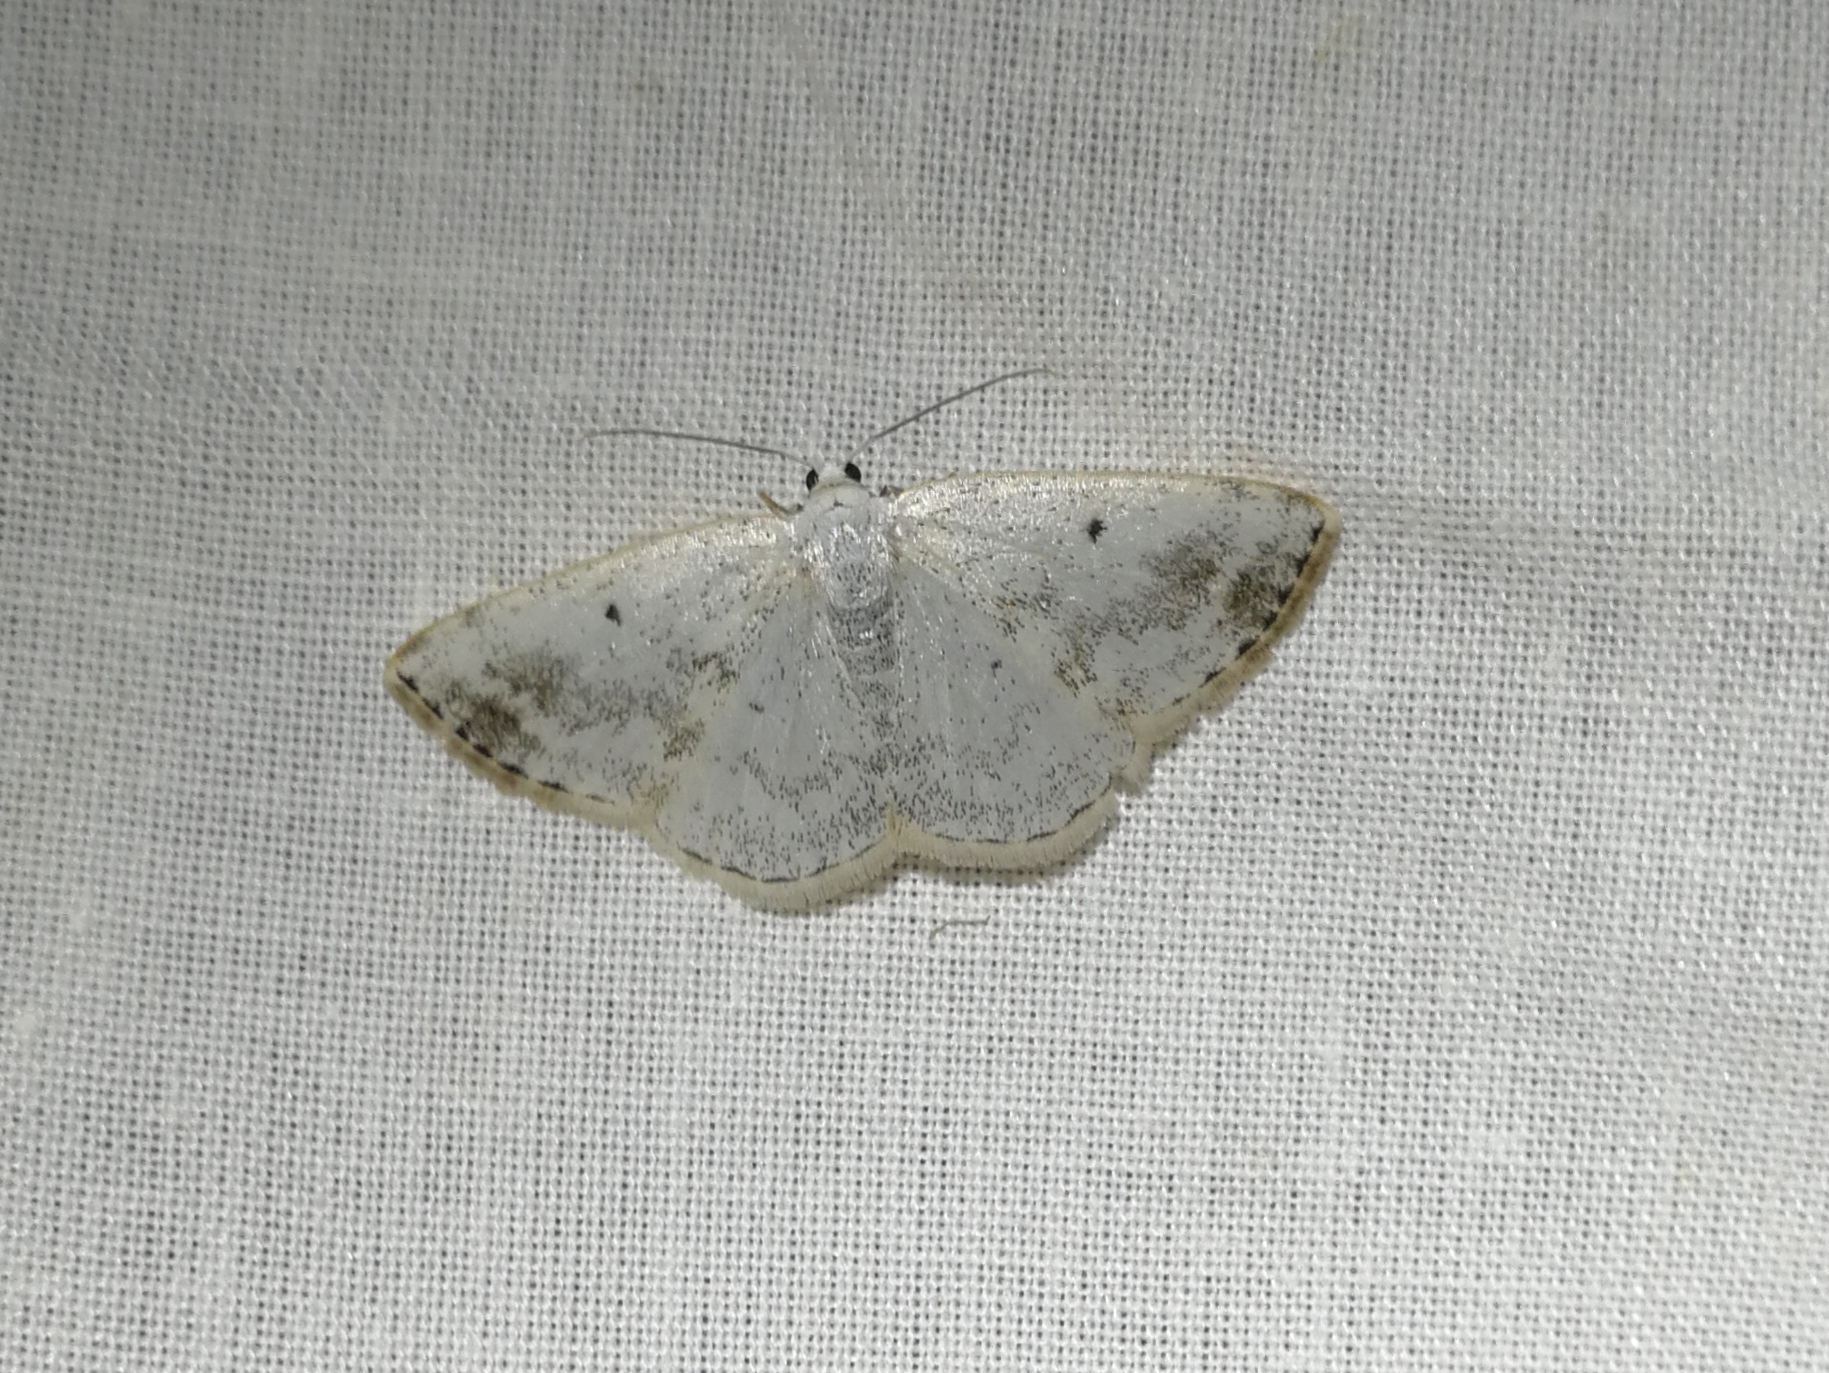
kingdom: Animalia
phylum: Arthropoda
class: Insecta
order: Lepidoptera
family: Geometridae
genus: Lomographa
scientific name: Lomographa temerata
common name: Clouded silver
